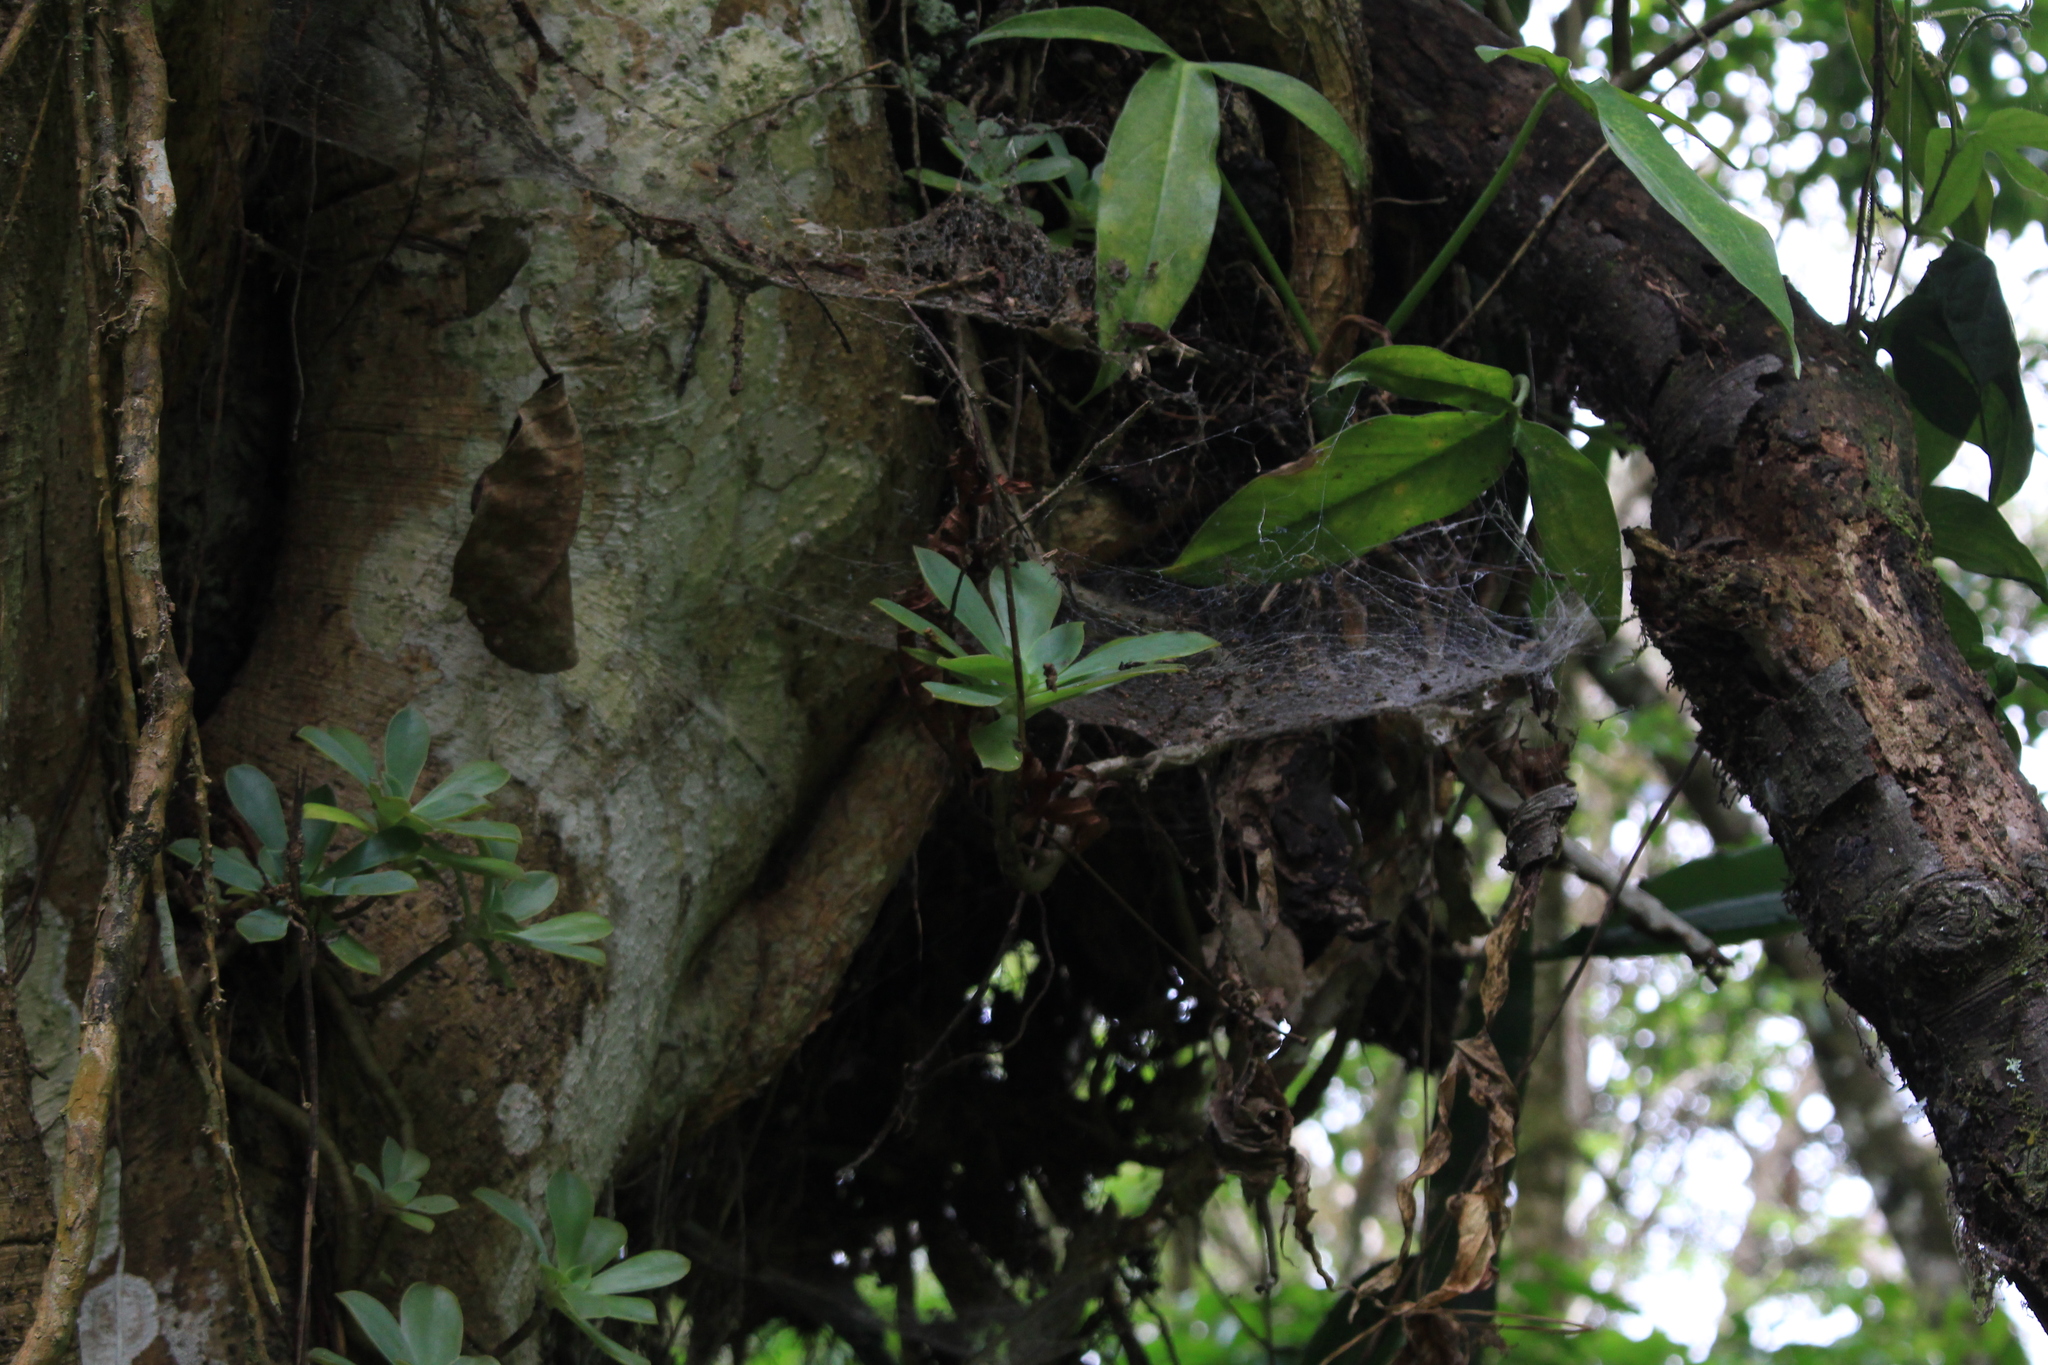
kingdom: Plantae
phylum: Tracheophyta
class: Magnoliopsida
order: Saxifragales
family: Crassulaceae
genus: Echeveria
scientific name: Echeveria australis
